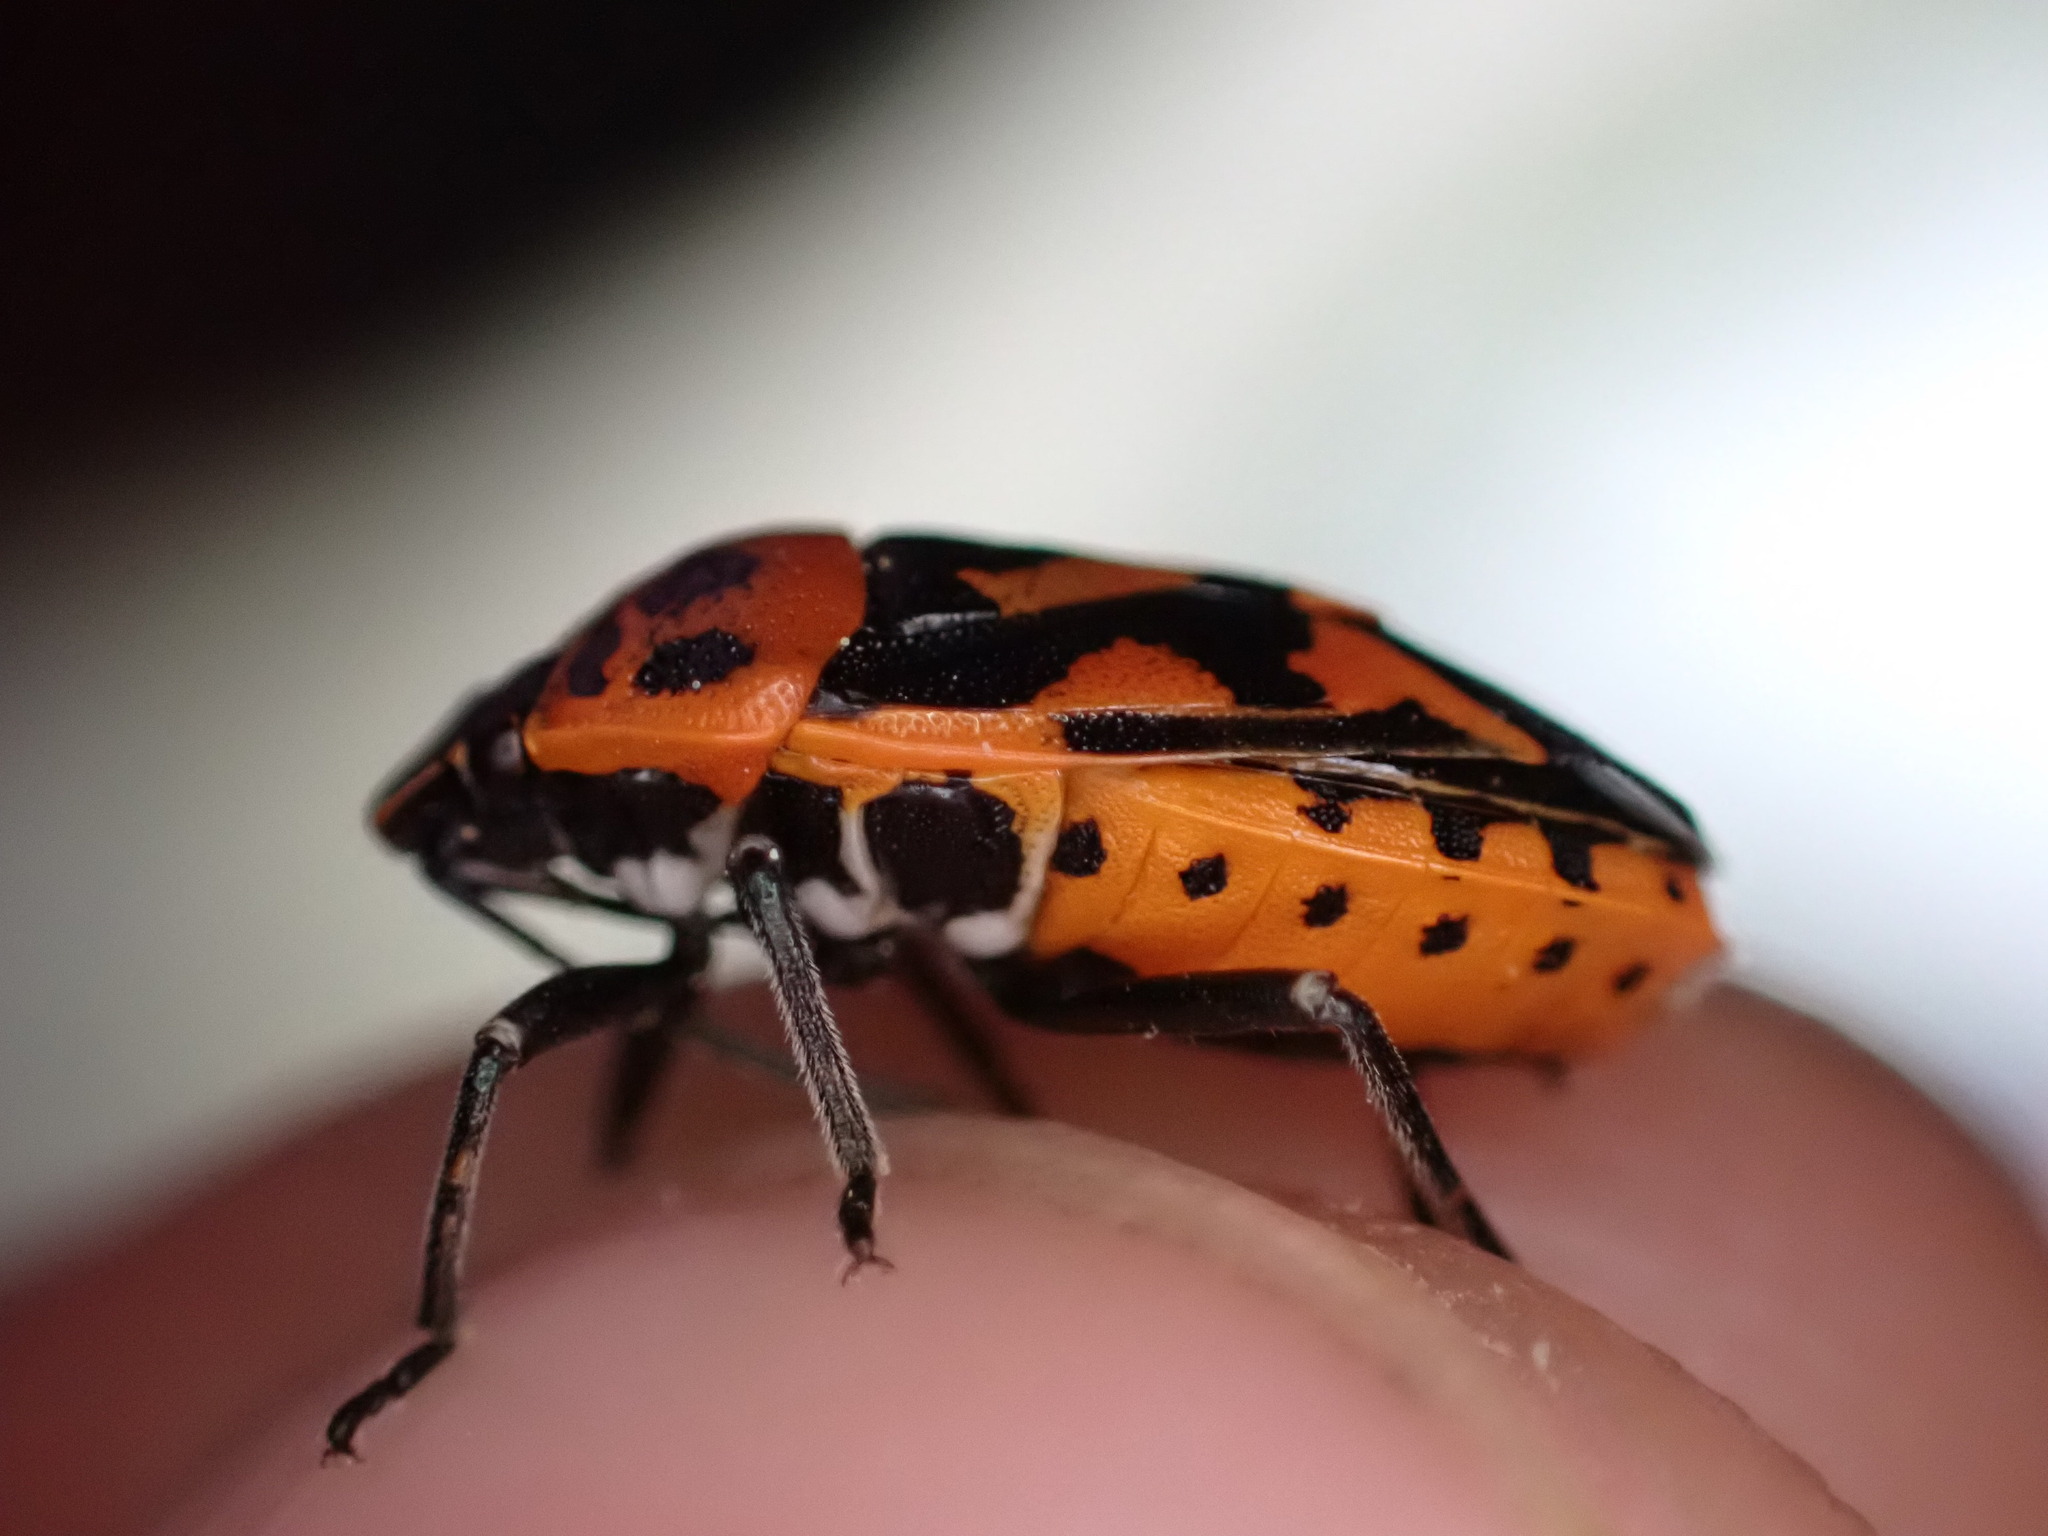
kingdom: Animalia
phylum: Arthropoda
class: Insecta
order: Hemiptera
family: Pentatomidae
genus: Eurydema
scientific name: Eurydema ornata
